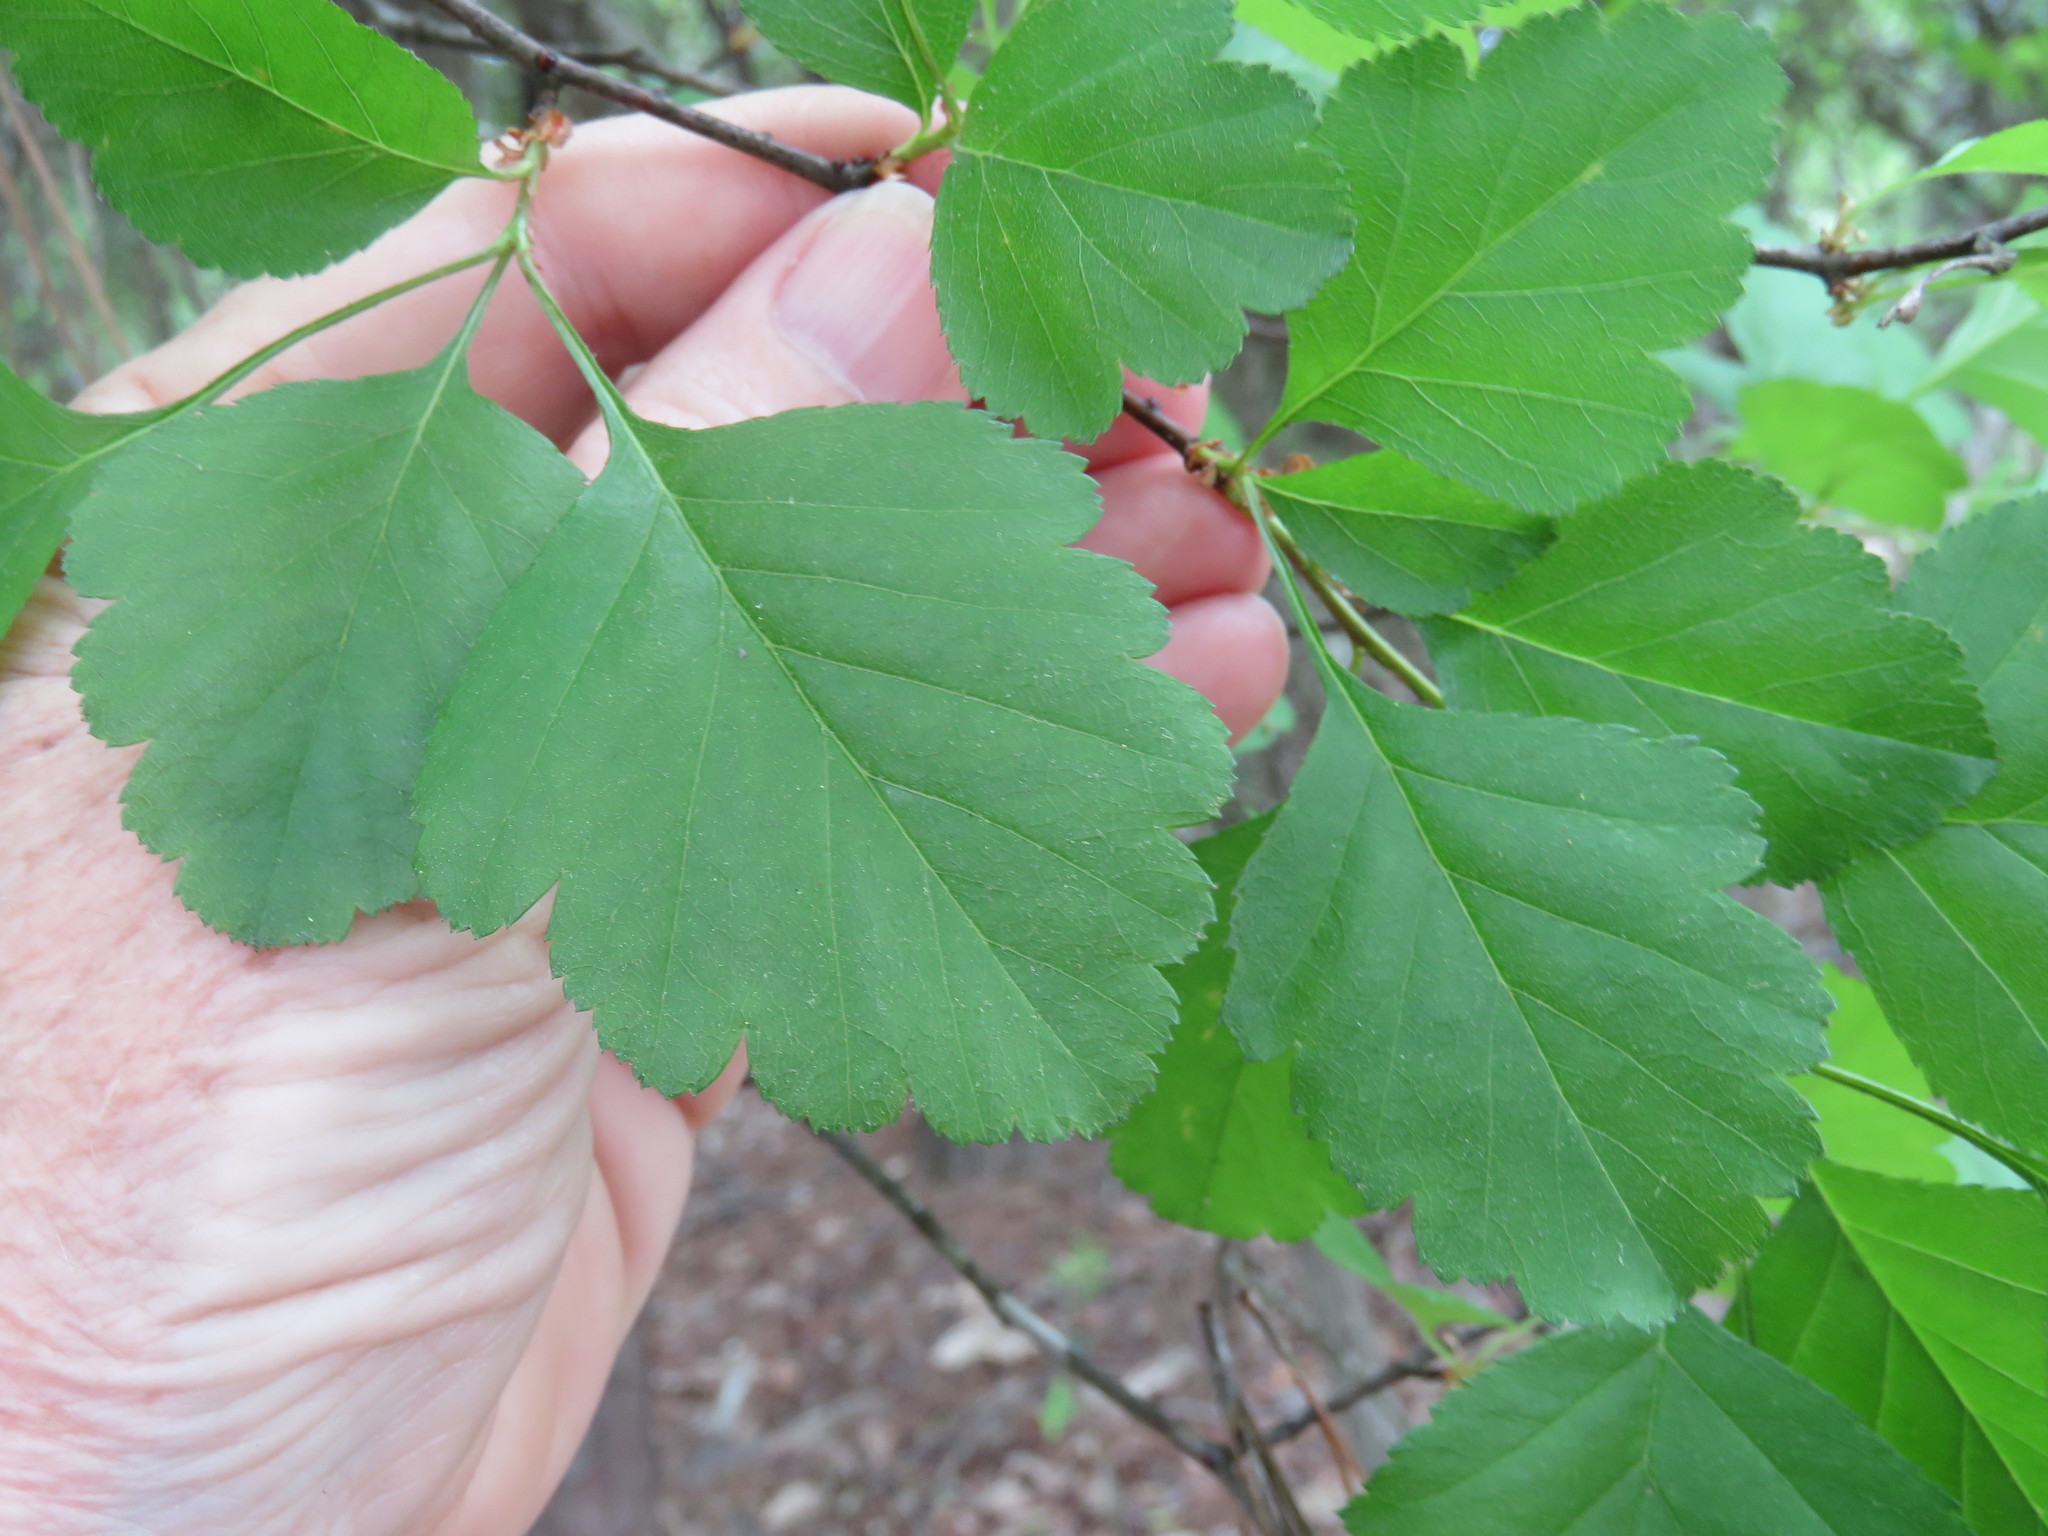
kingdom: Plantae
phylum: Tracheophyta
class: Magnoliopsida
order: Rosales
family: Rosaceae
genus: Crataegus
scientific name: Crataegus viridis
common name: Southernthorn
